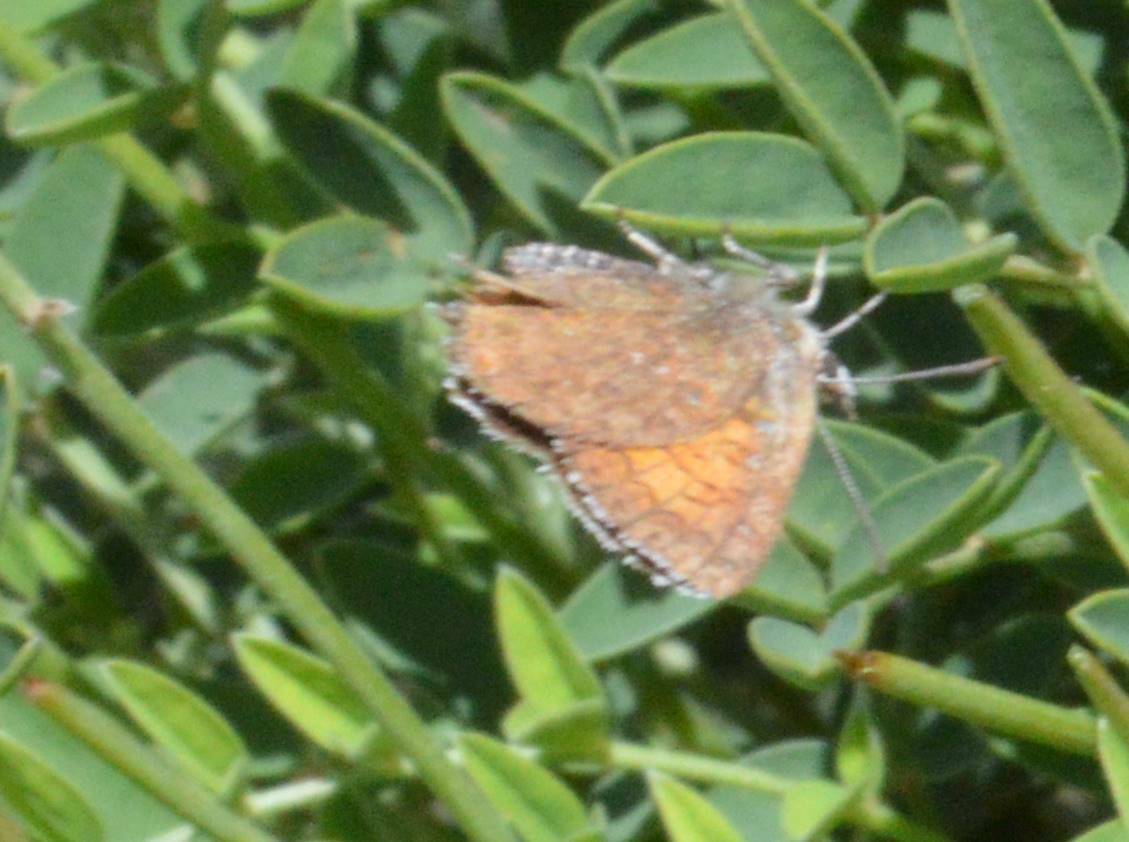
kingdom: Animalia
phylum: Arthropoda
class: Insecta
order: Lepidoptera
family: Lycaenidae
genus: Cigaritis
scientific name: Cigaritis syphax
